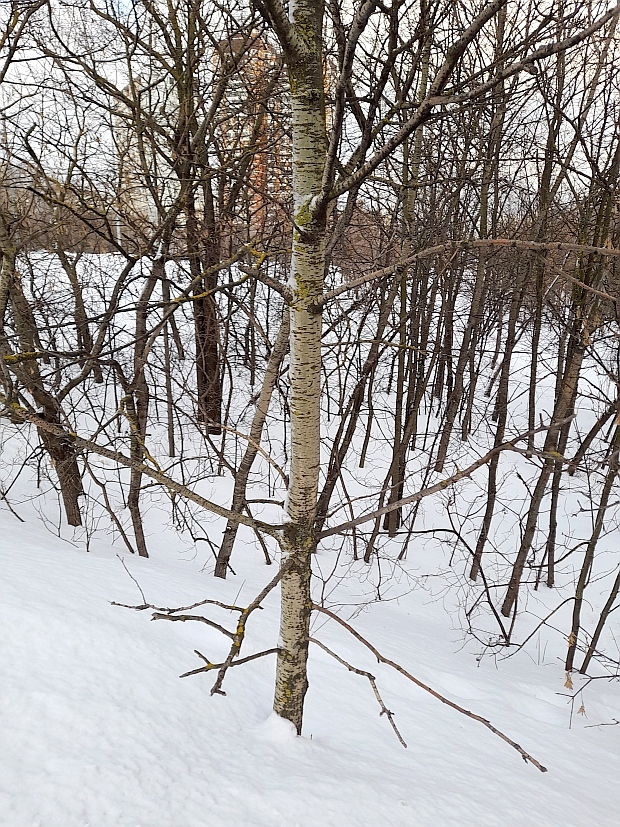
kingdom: Plantae
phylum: Tracheophyta
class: Magnoliopsida
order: Malpighiales
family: Salicaceae
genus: Populus
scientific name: Populus tremula
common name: European aspen
